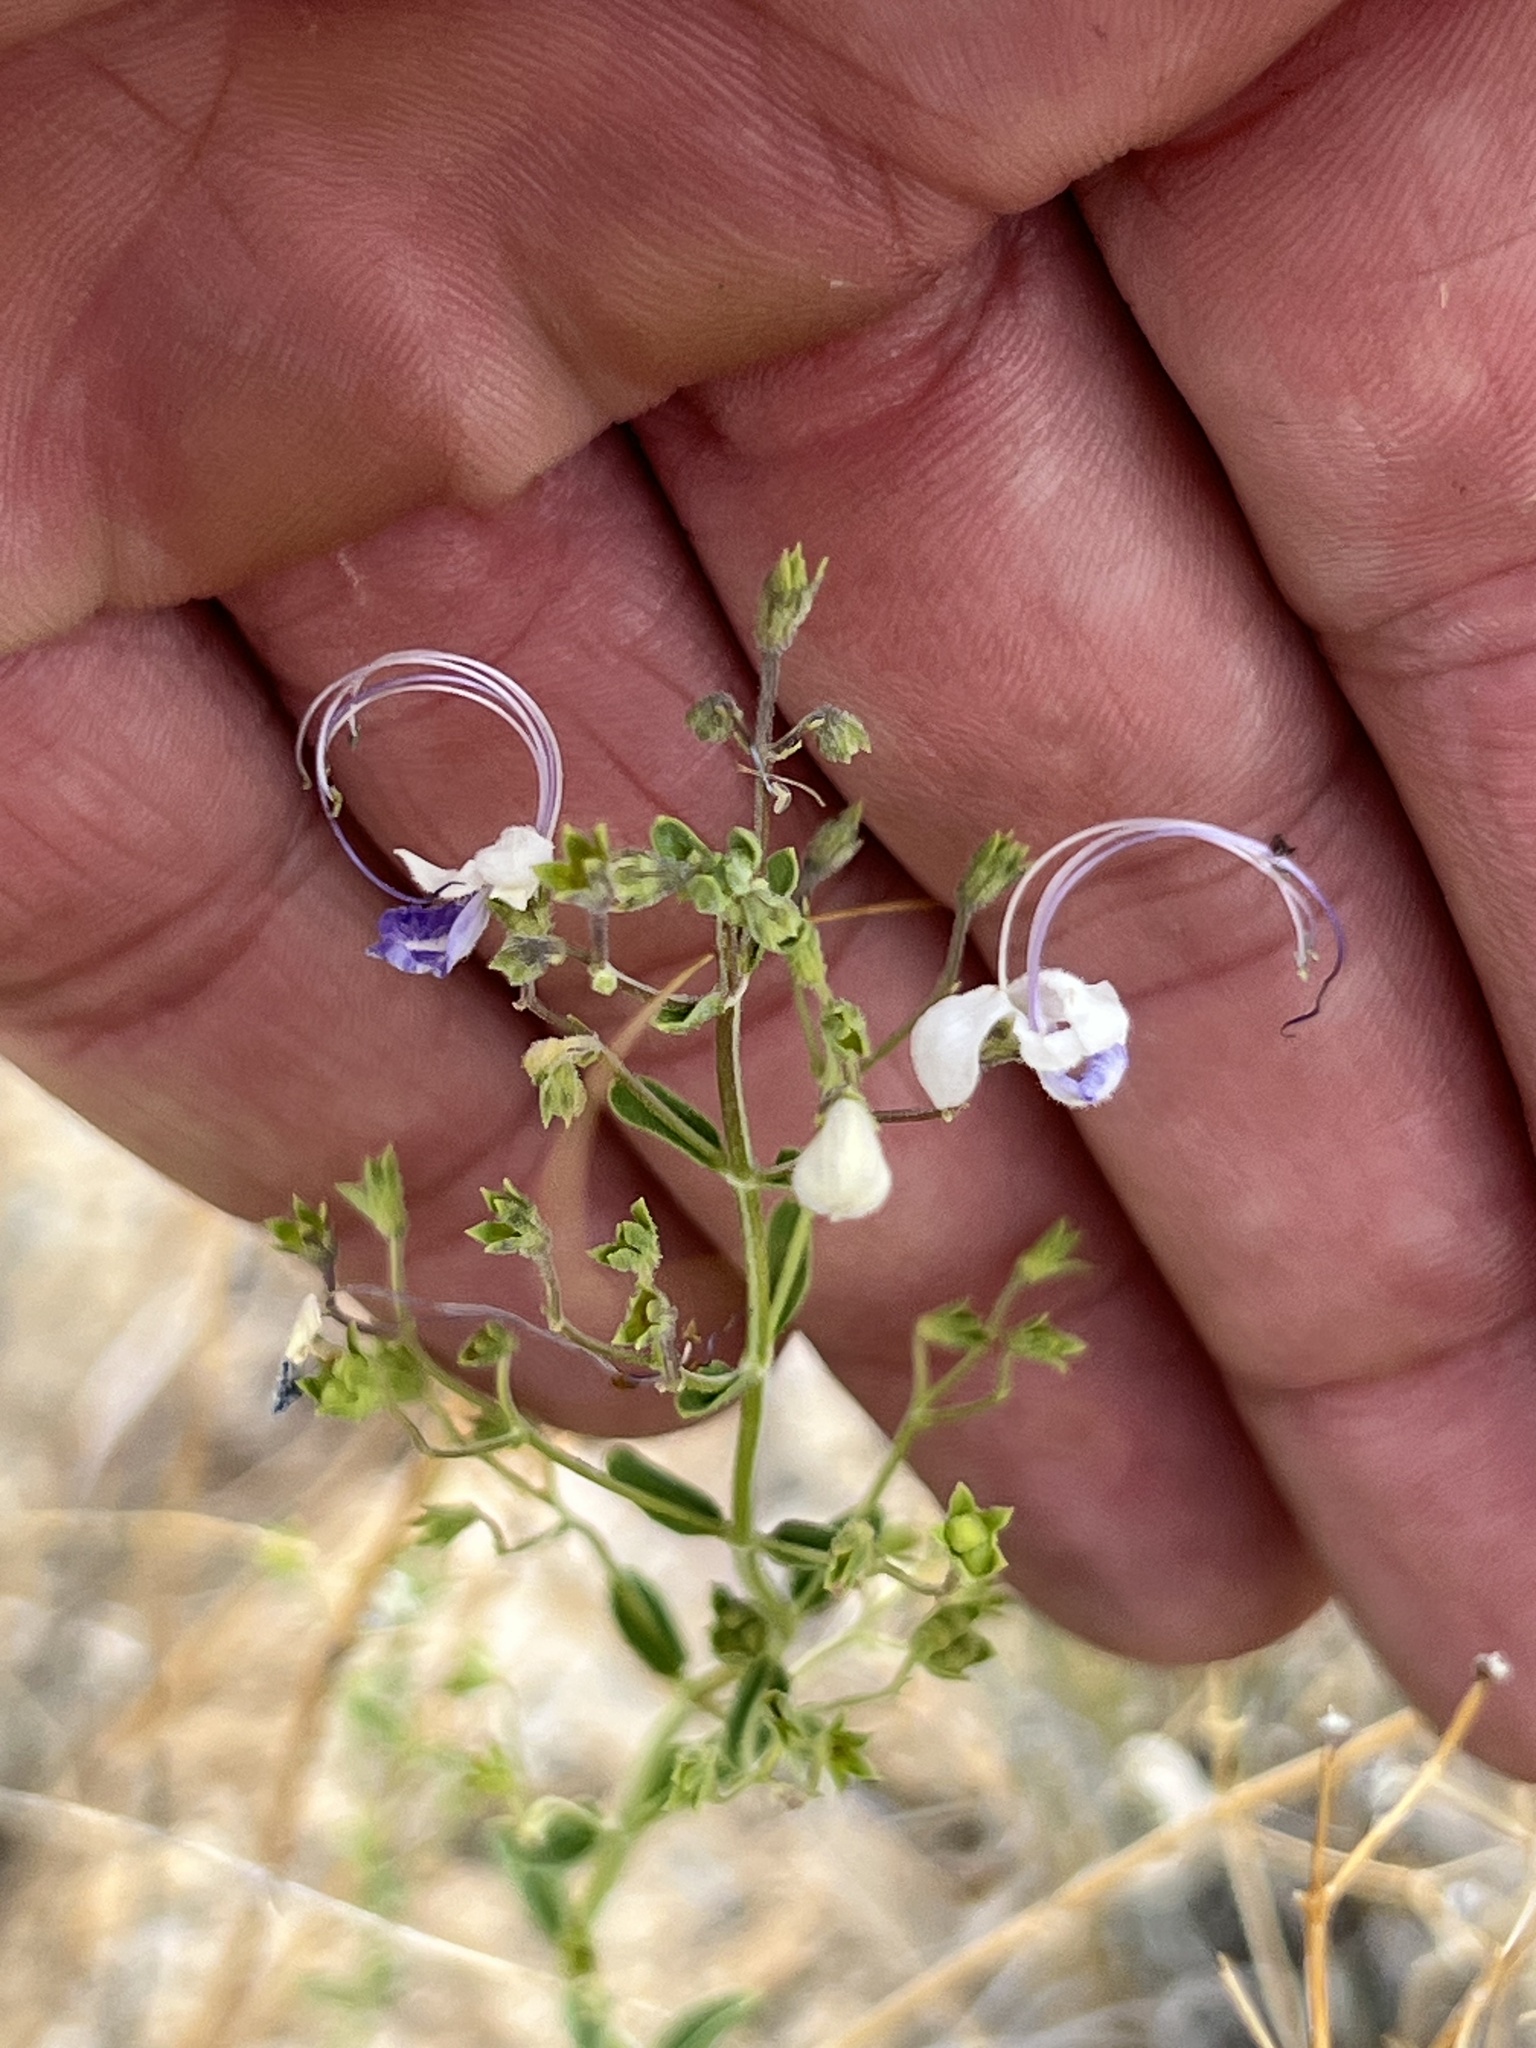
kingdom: Plantae
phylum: Tracheophyta
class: Magnoliopsida
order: Lamiales
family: Lamiaceae
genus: Trichostema
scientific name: Trichostema arizonicum
